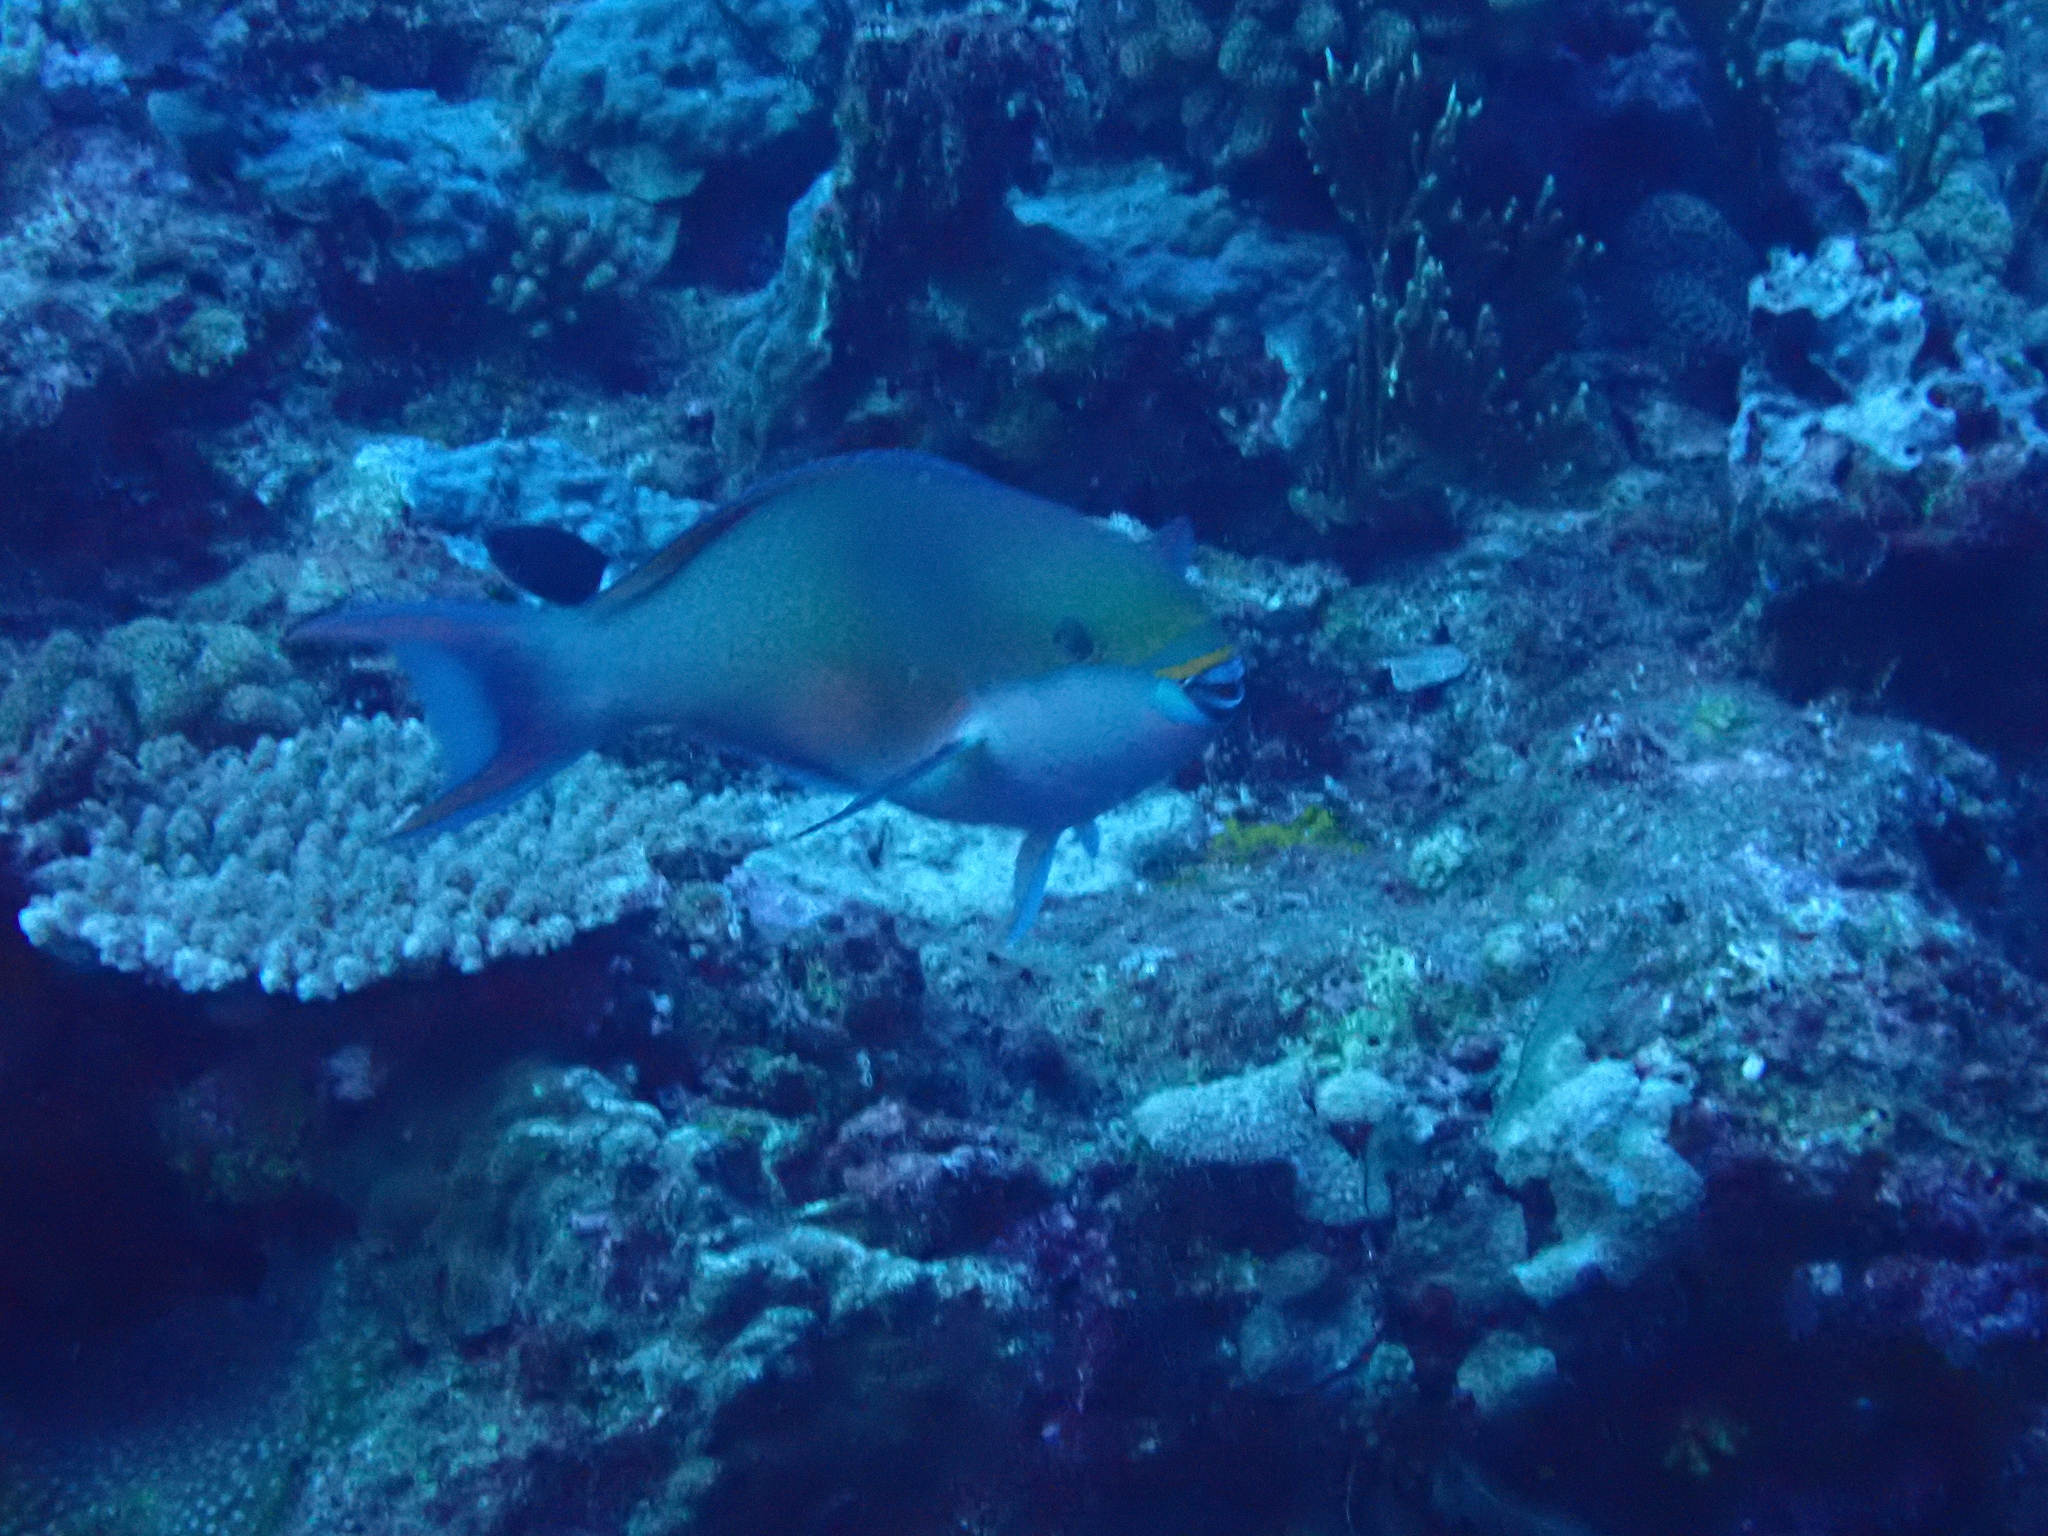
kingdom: Animalia
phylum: Chordata
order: Perciformes
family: Scaridae
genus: Scarus
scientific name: Scarus forsteni
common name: Forsten's parrotfish
